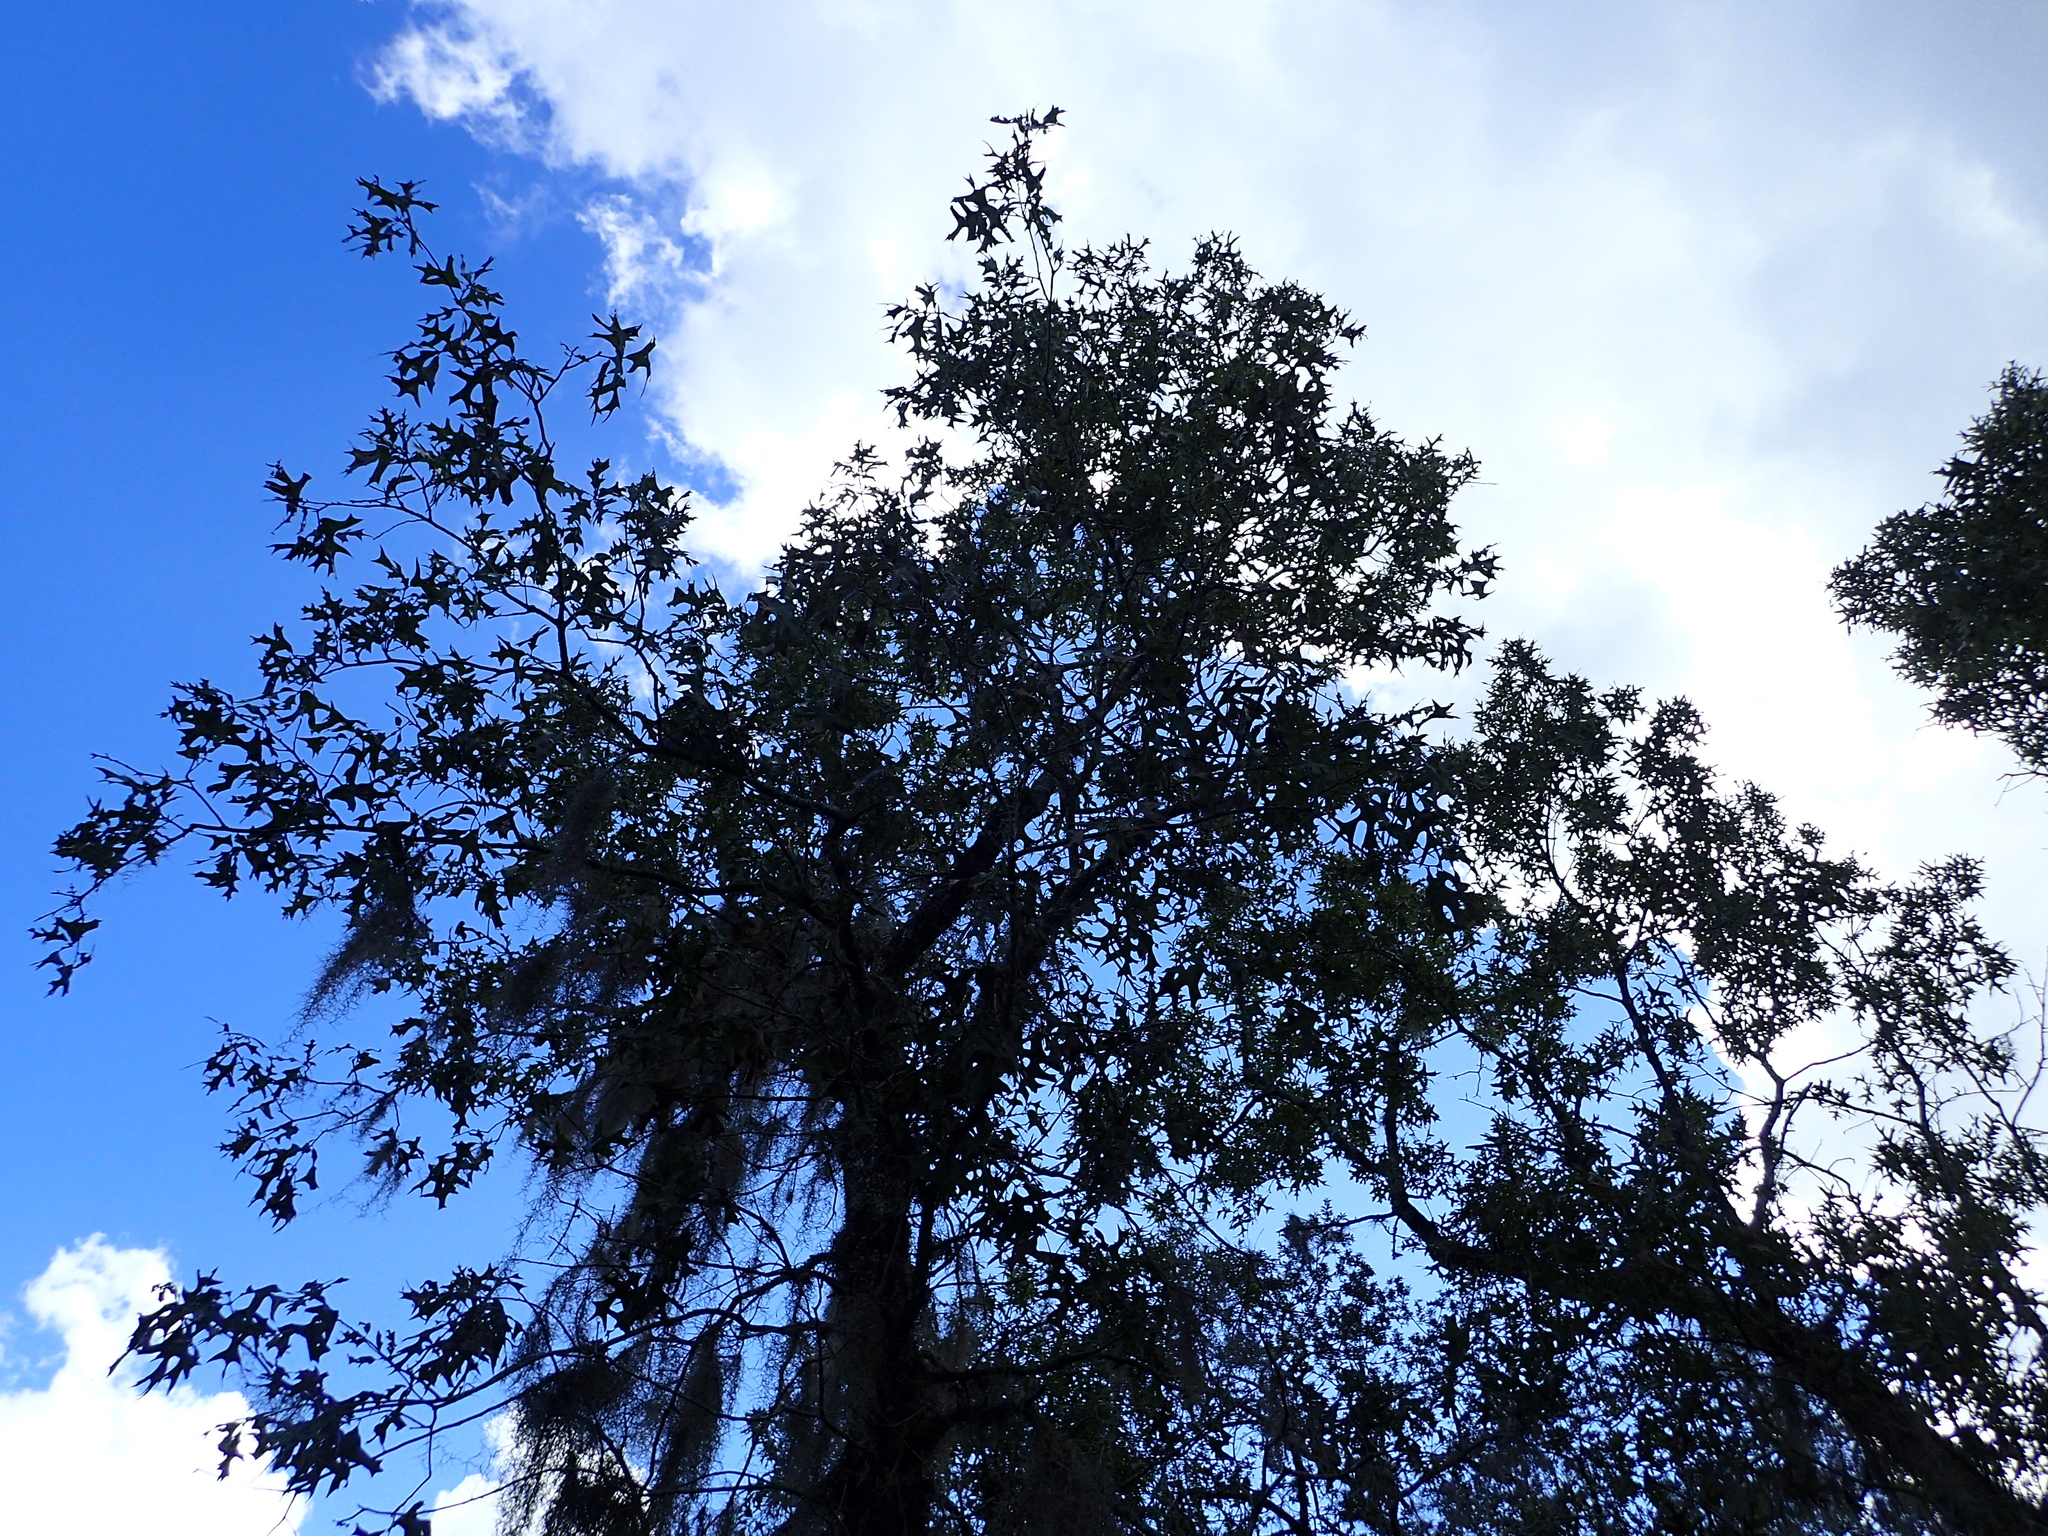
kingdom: Plantae
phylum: Tracheophyta
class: Magnoliopsida
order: Fagales
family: Fagaceae
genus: Quercus
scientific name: Quercus laevis
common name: Turkey oak
